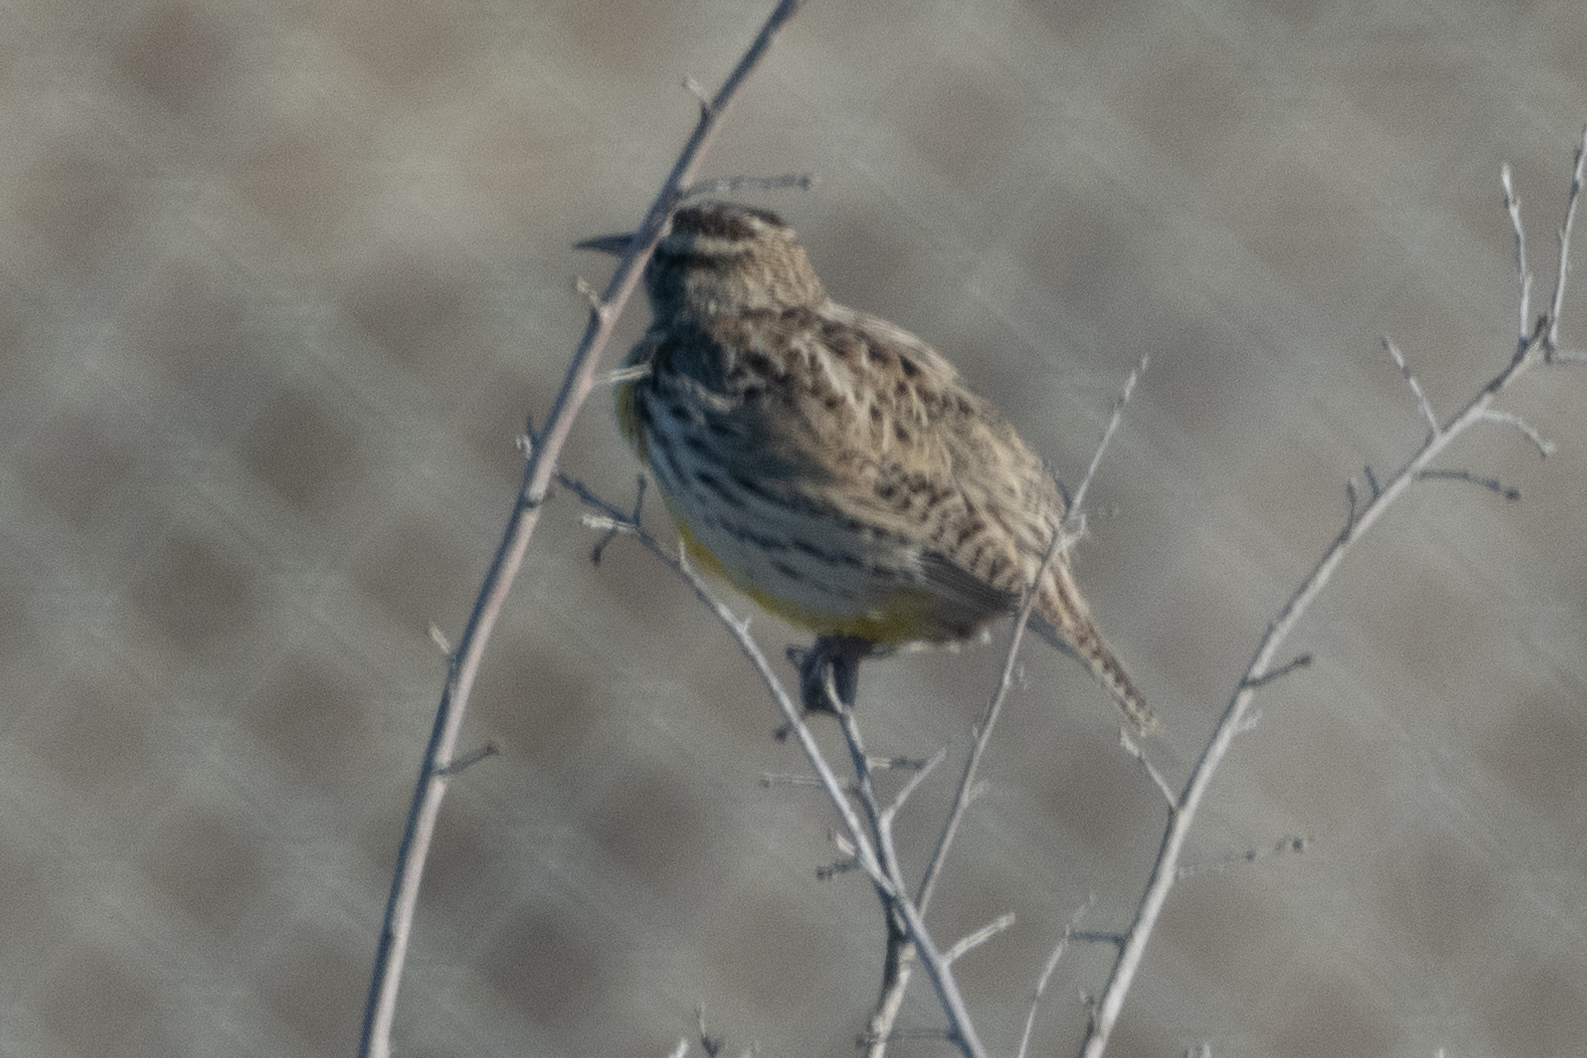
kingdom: Animalia
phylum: Chordata
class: Aves
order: Passeriformes
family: Icteridae
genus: Sturnella
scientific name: Sturnella neglecta
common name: Western meadowlark
